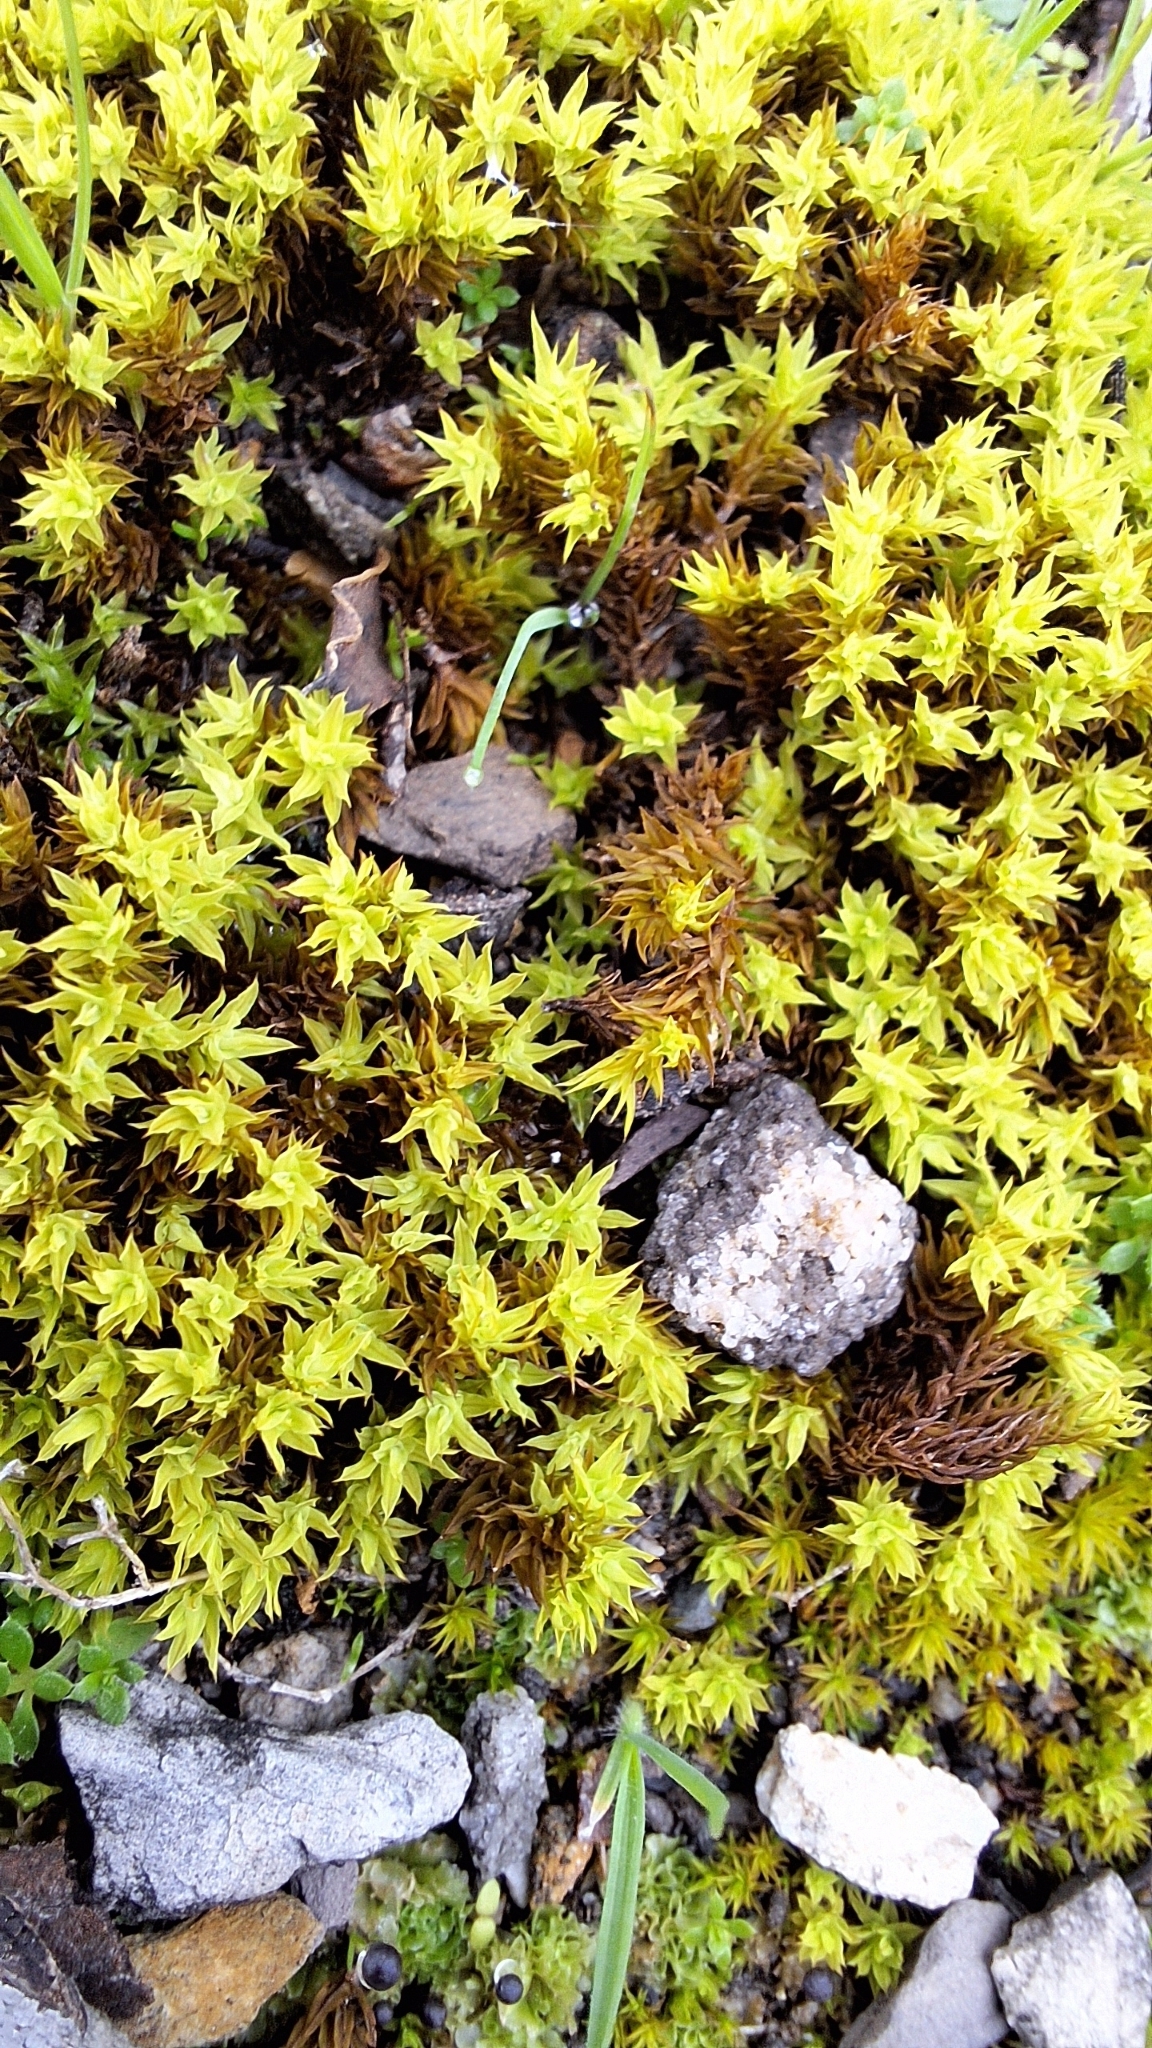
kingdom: Plantae
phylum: Bryophyta
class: Bryopsida
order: Pottiales
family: Pottiaceae
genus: Barbula
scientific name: Barbula calycina
